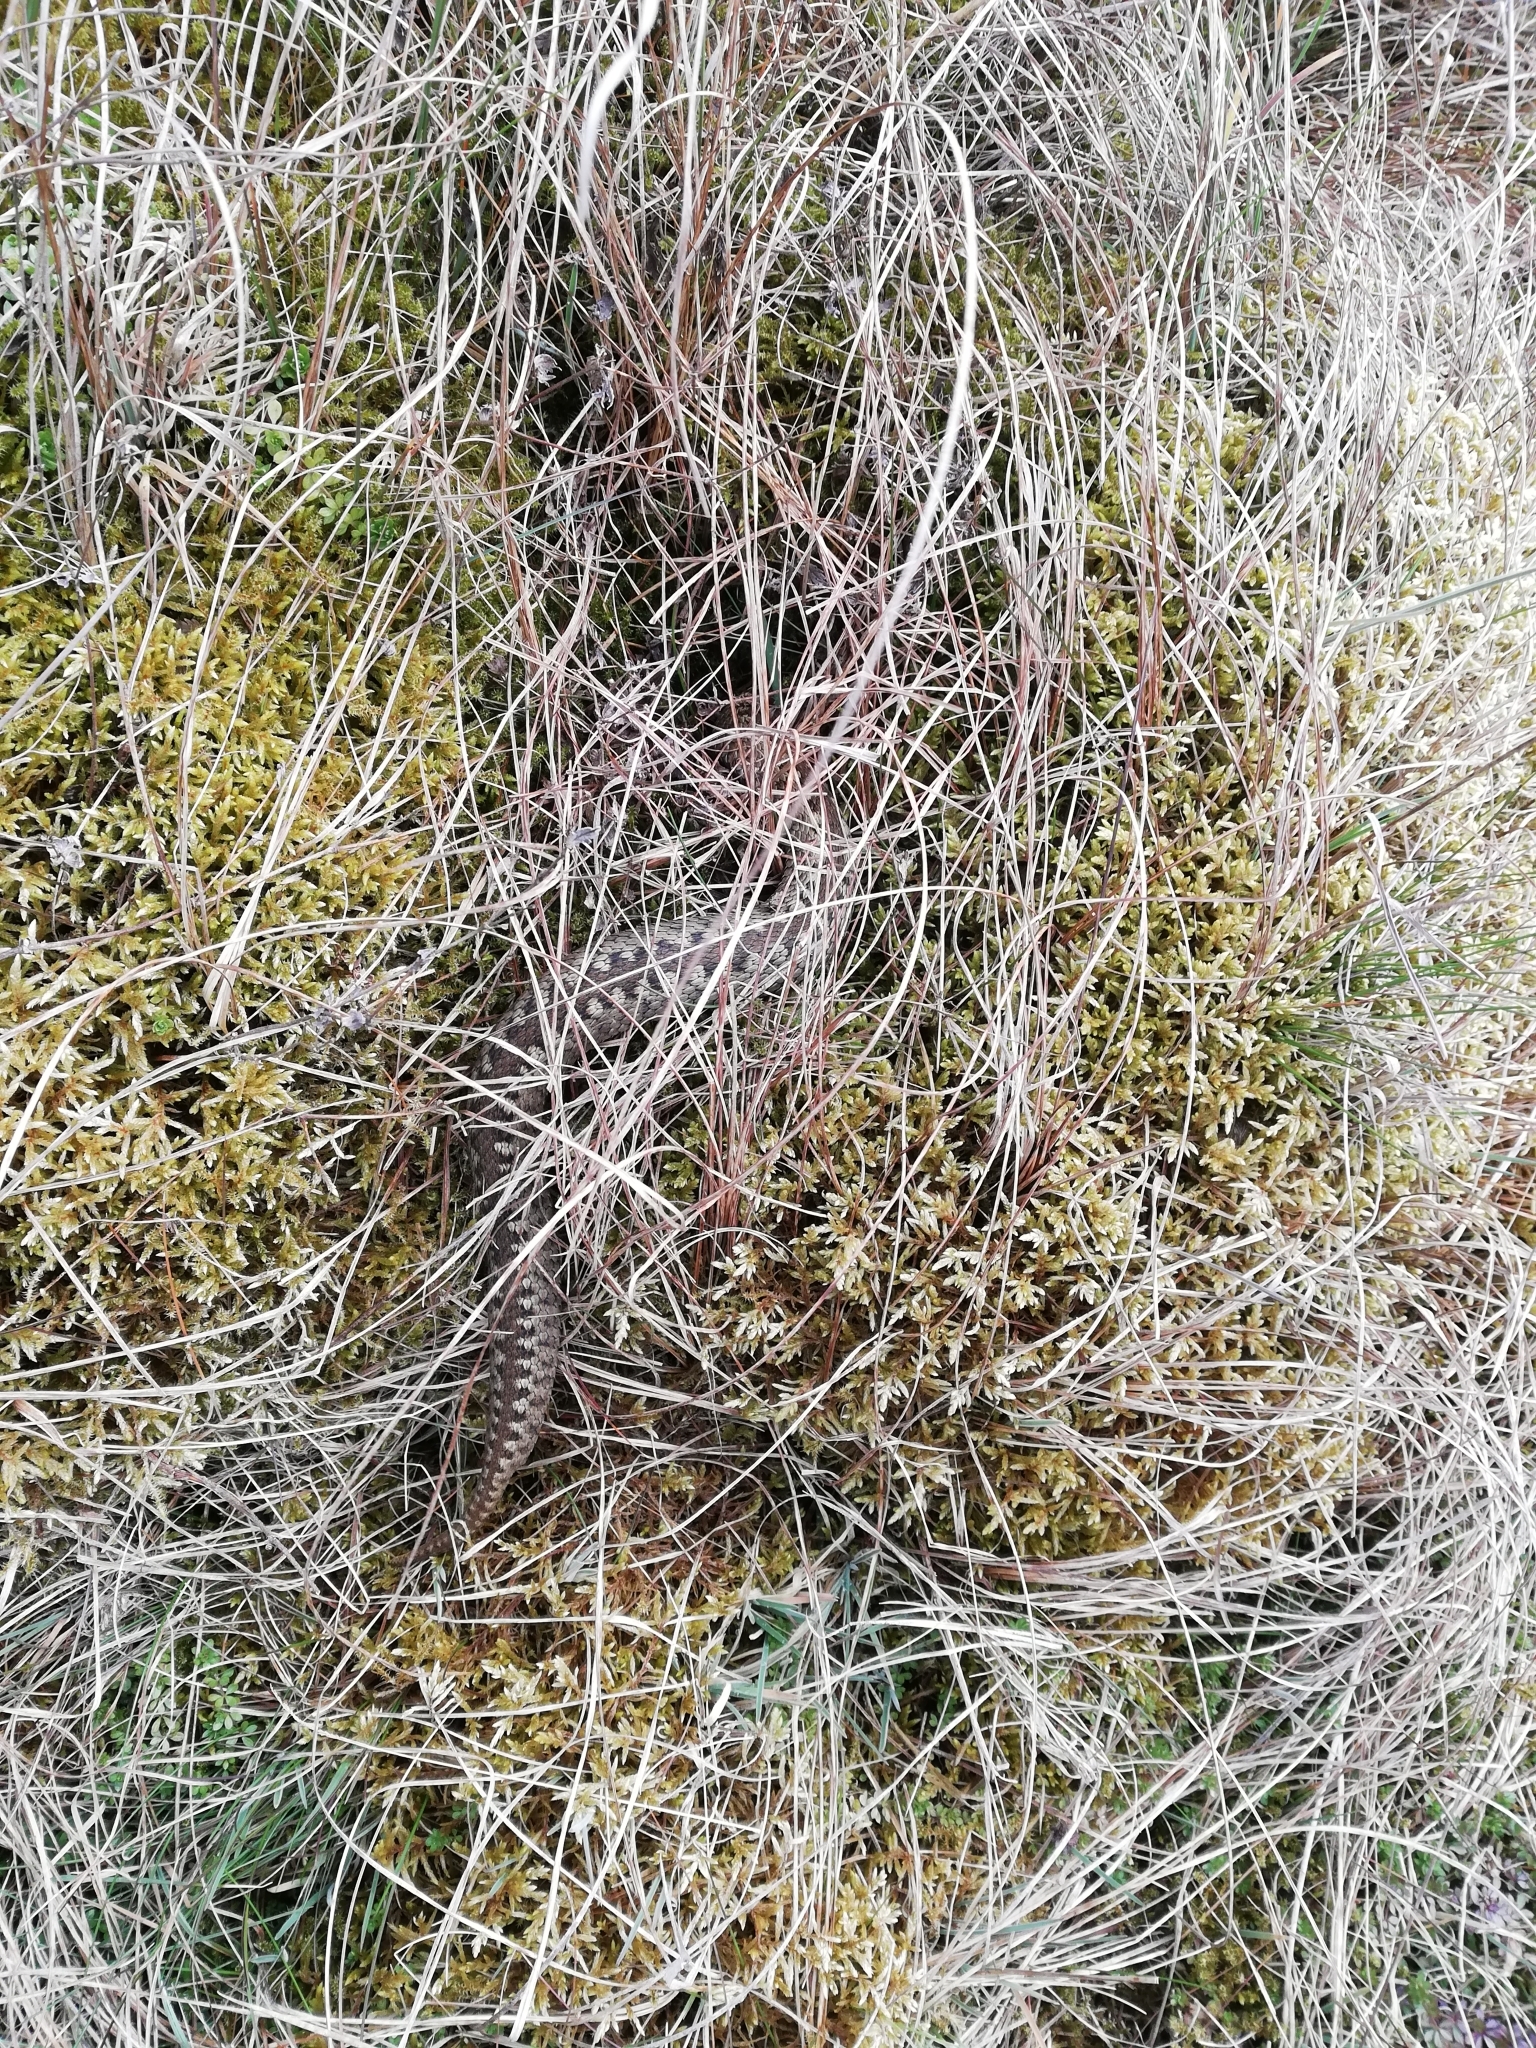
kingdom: Animalia
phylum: Chordata
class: Squamata
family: Viperidae
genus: Vipera
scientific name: Vipera berus
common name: Adder
